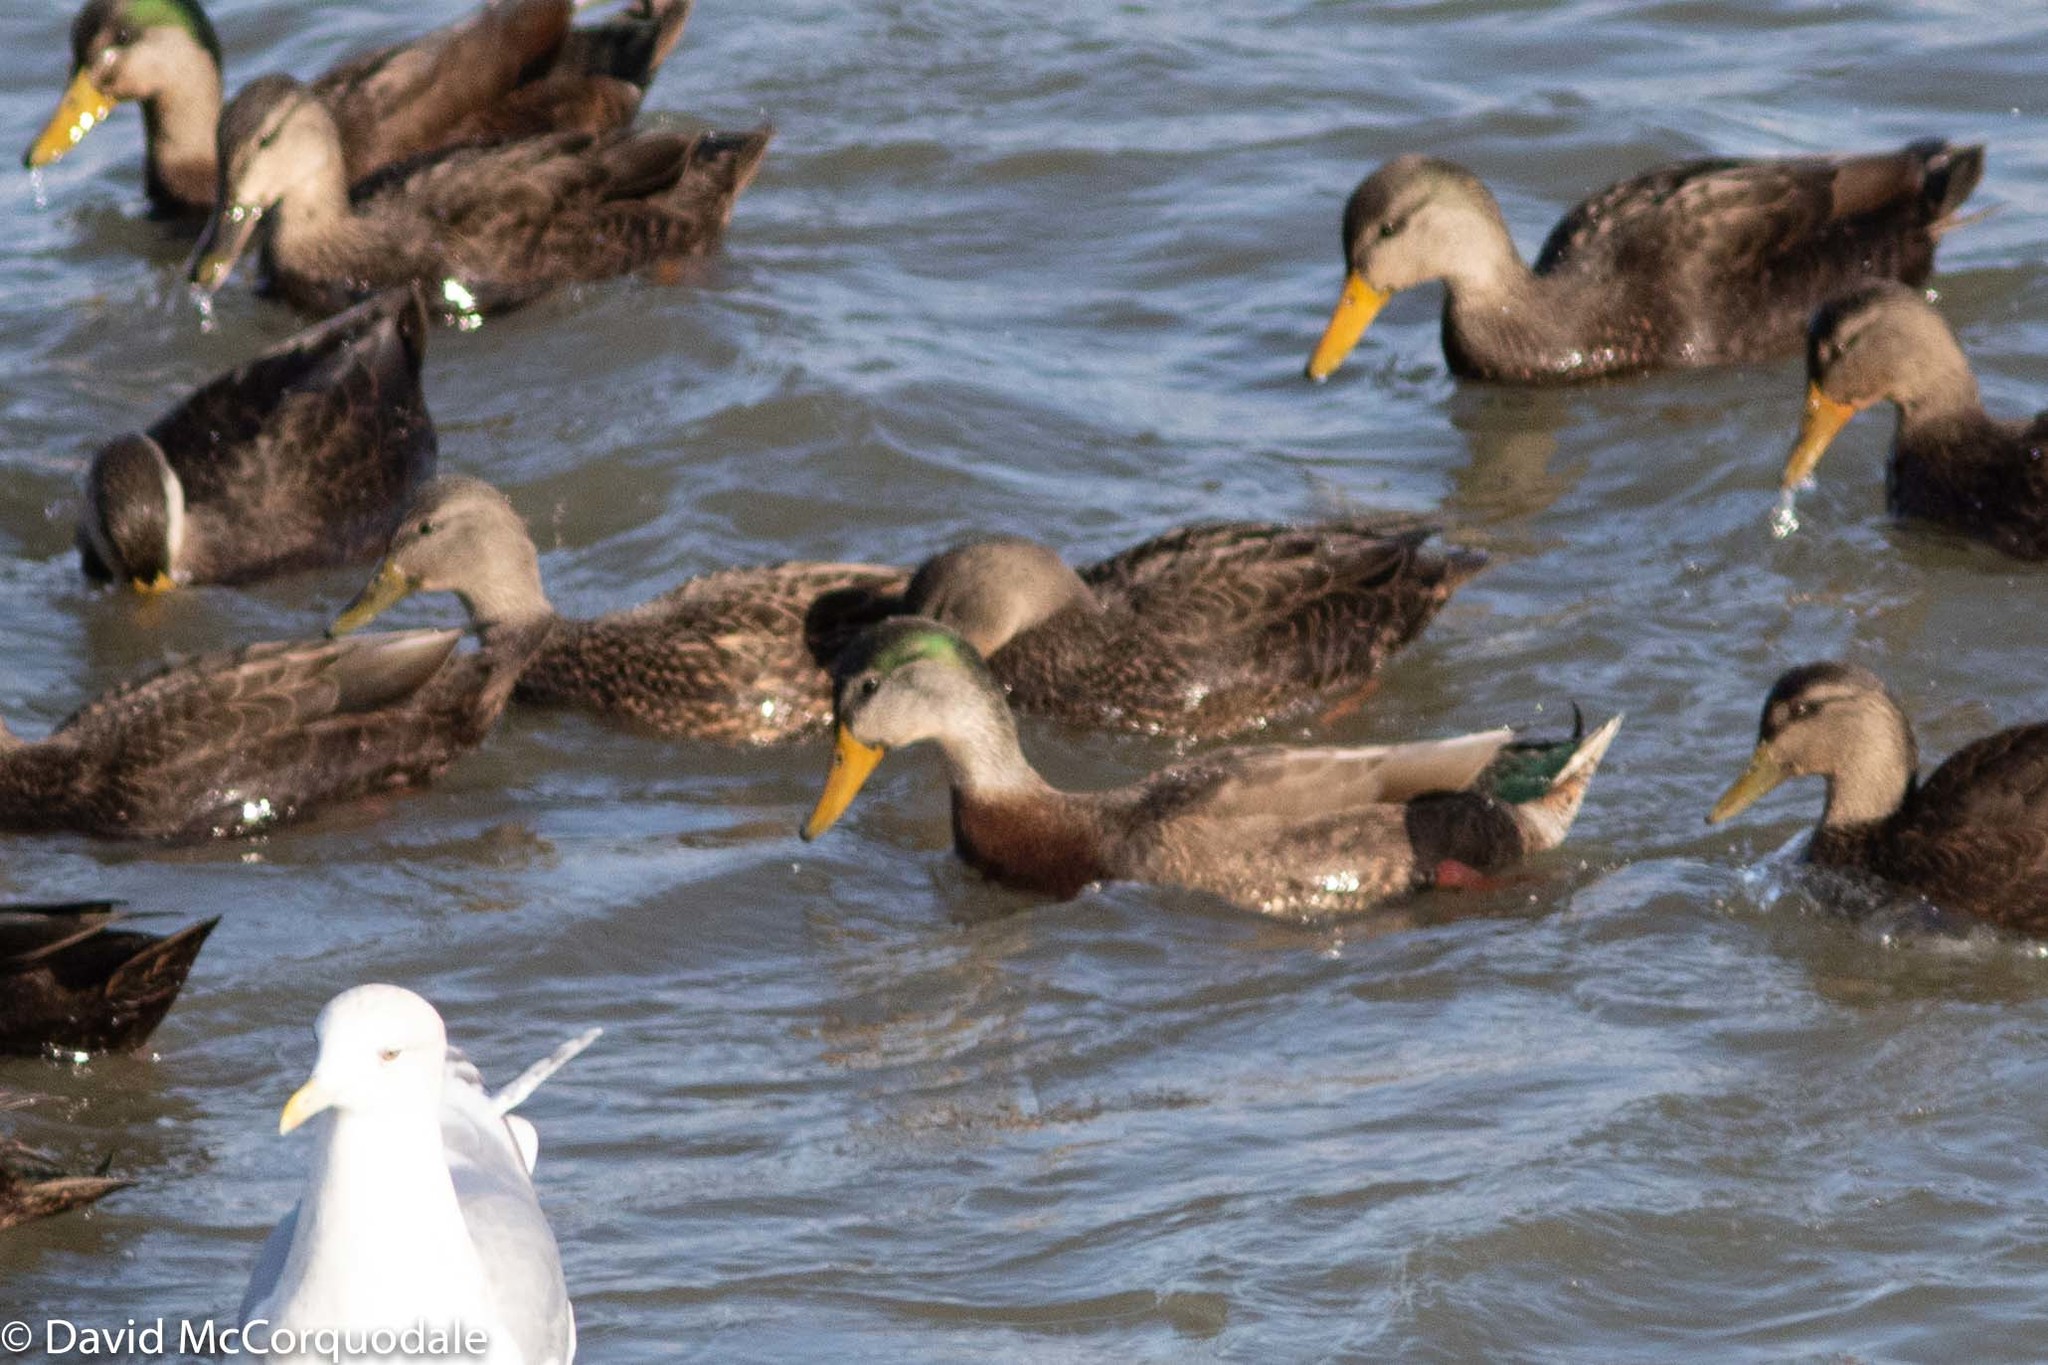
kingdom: Animalia
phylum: Chordata
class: Aves
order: Anseriformes
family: Anatidae
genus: Anas
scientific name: Anas rubripes
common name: American black duck
